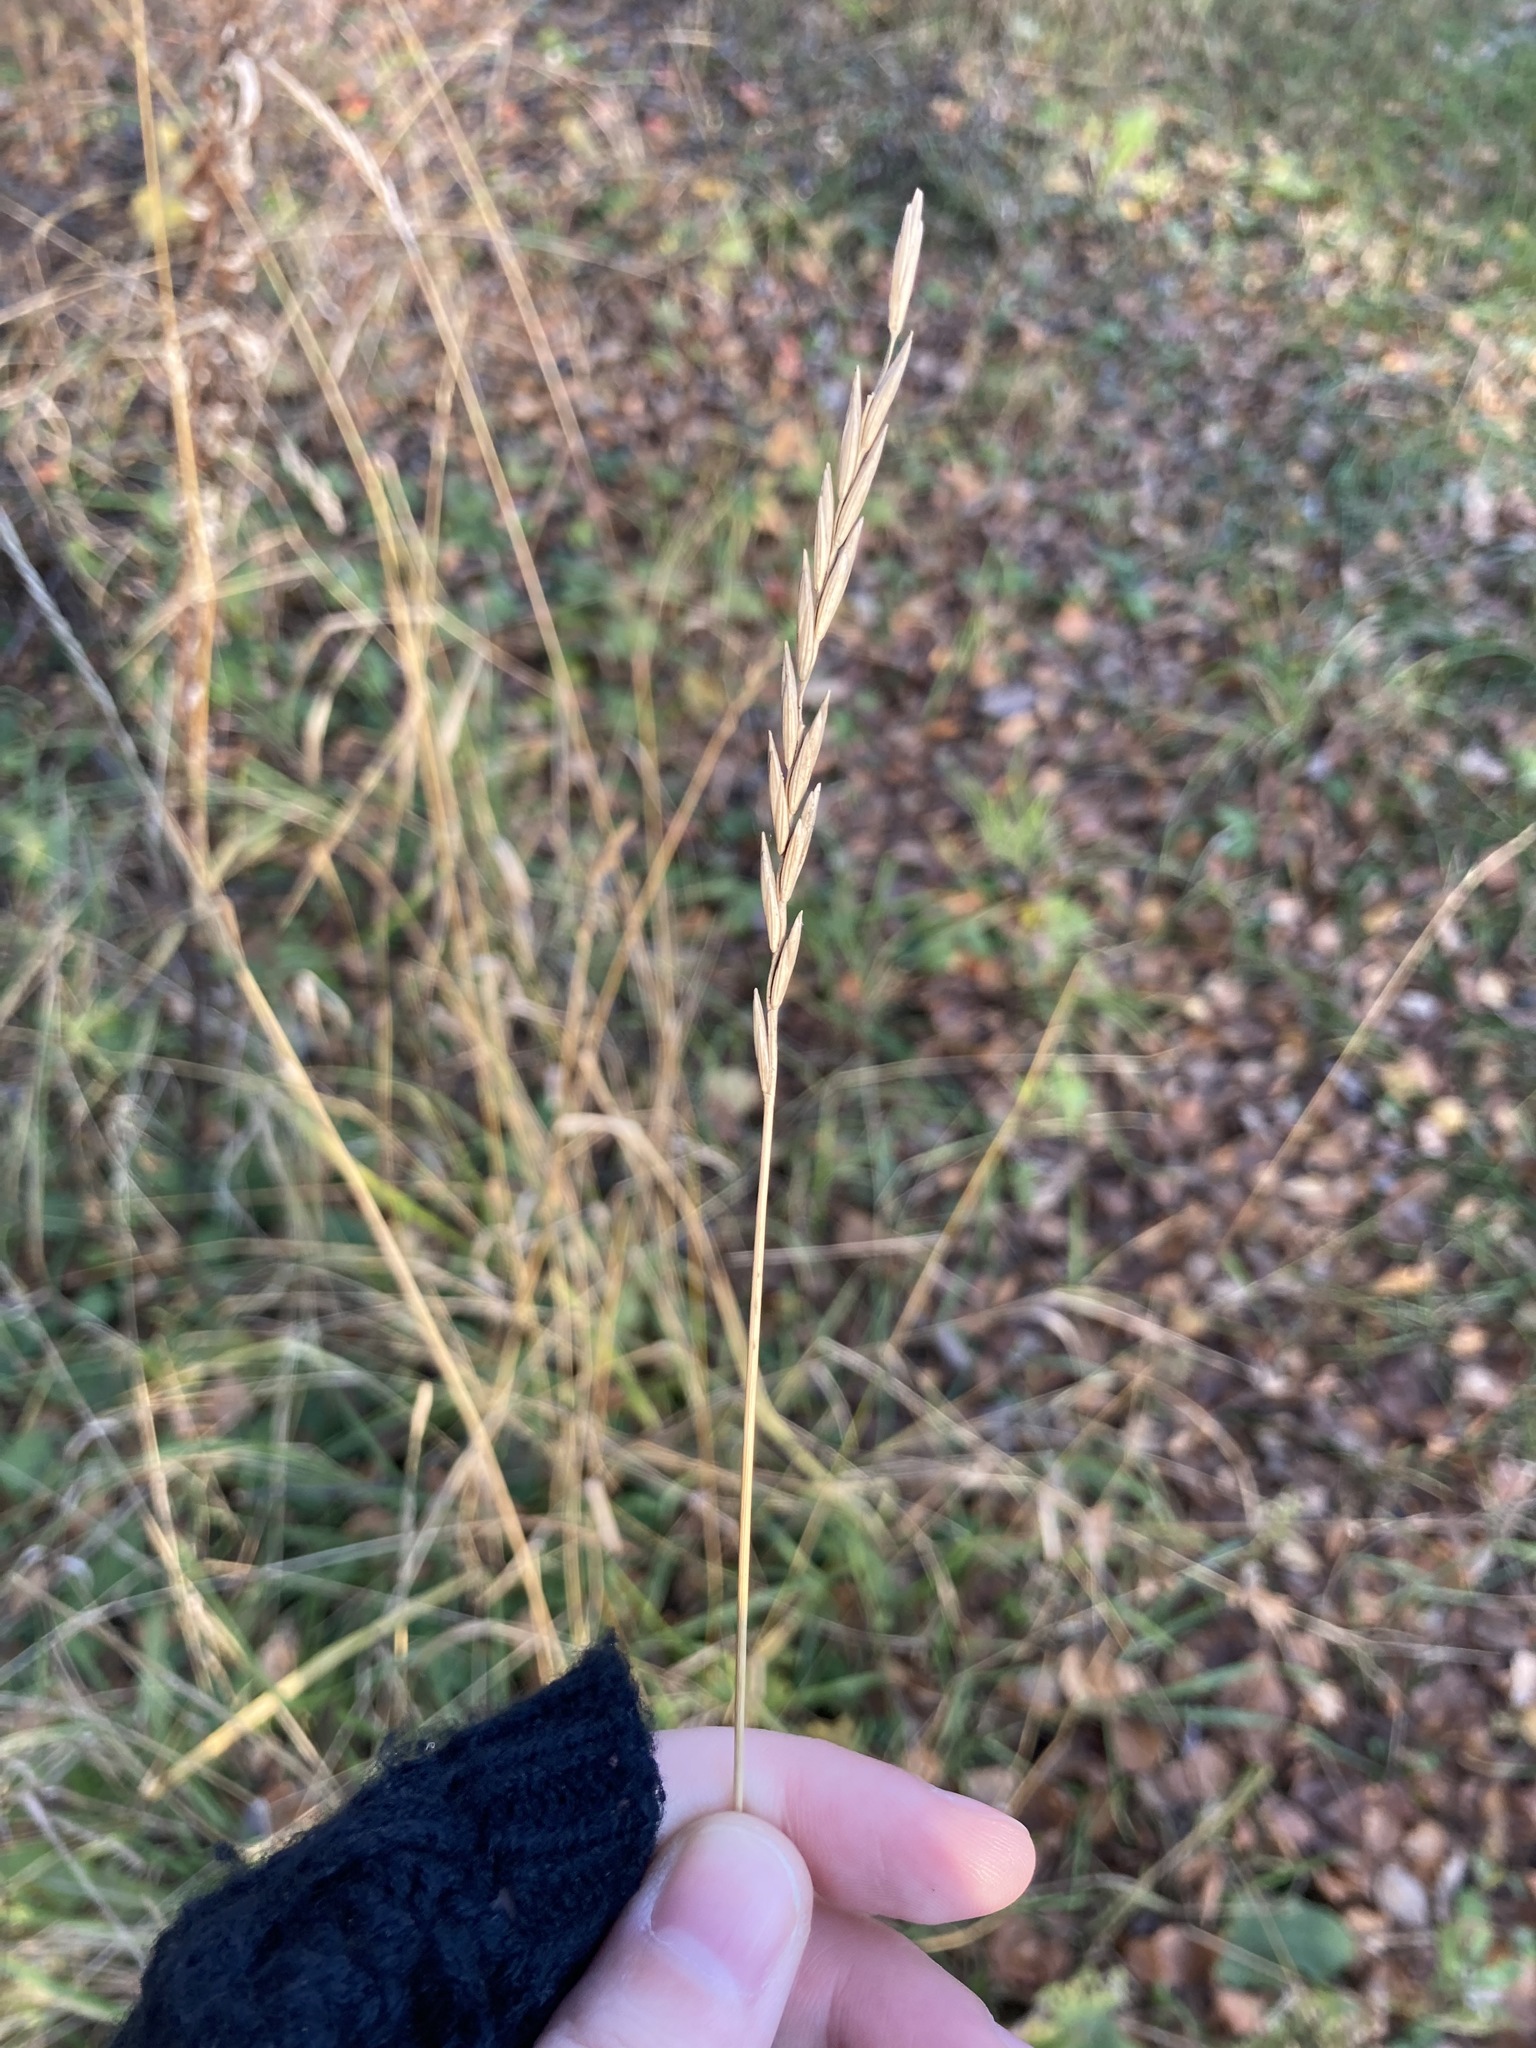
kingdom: Plantae
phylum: Tracheophyta
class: Liliopsida
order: Poales
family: Poaceae
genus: Elymus
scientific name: Elymus repens
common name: Quackgrass
